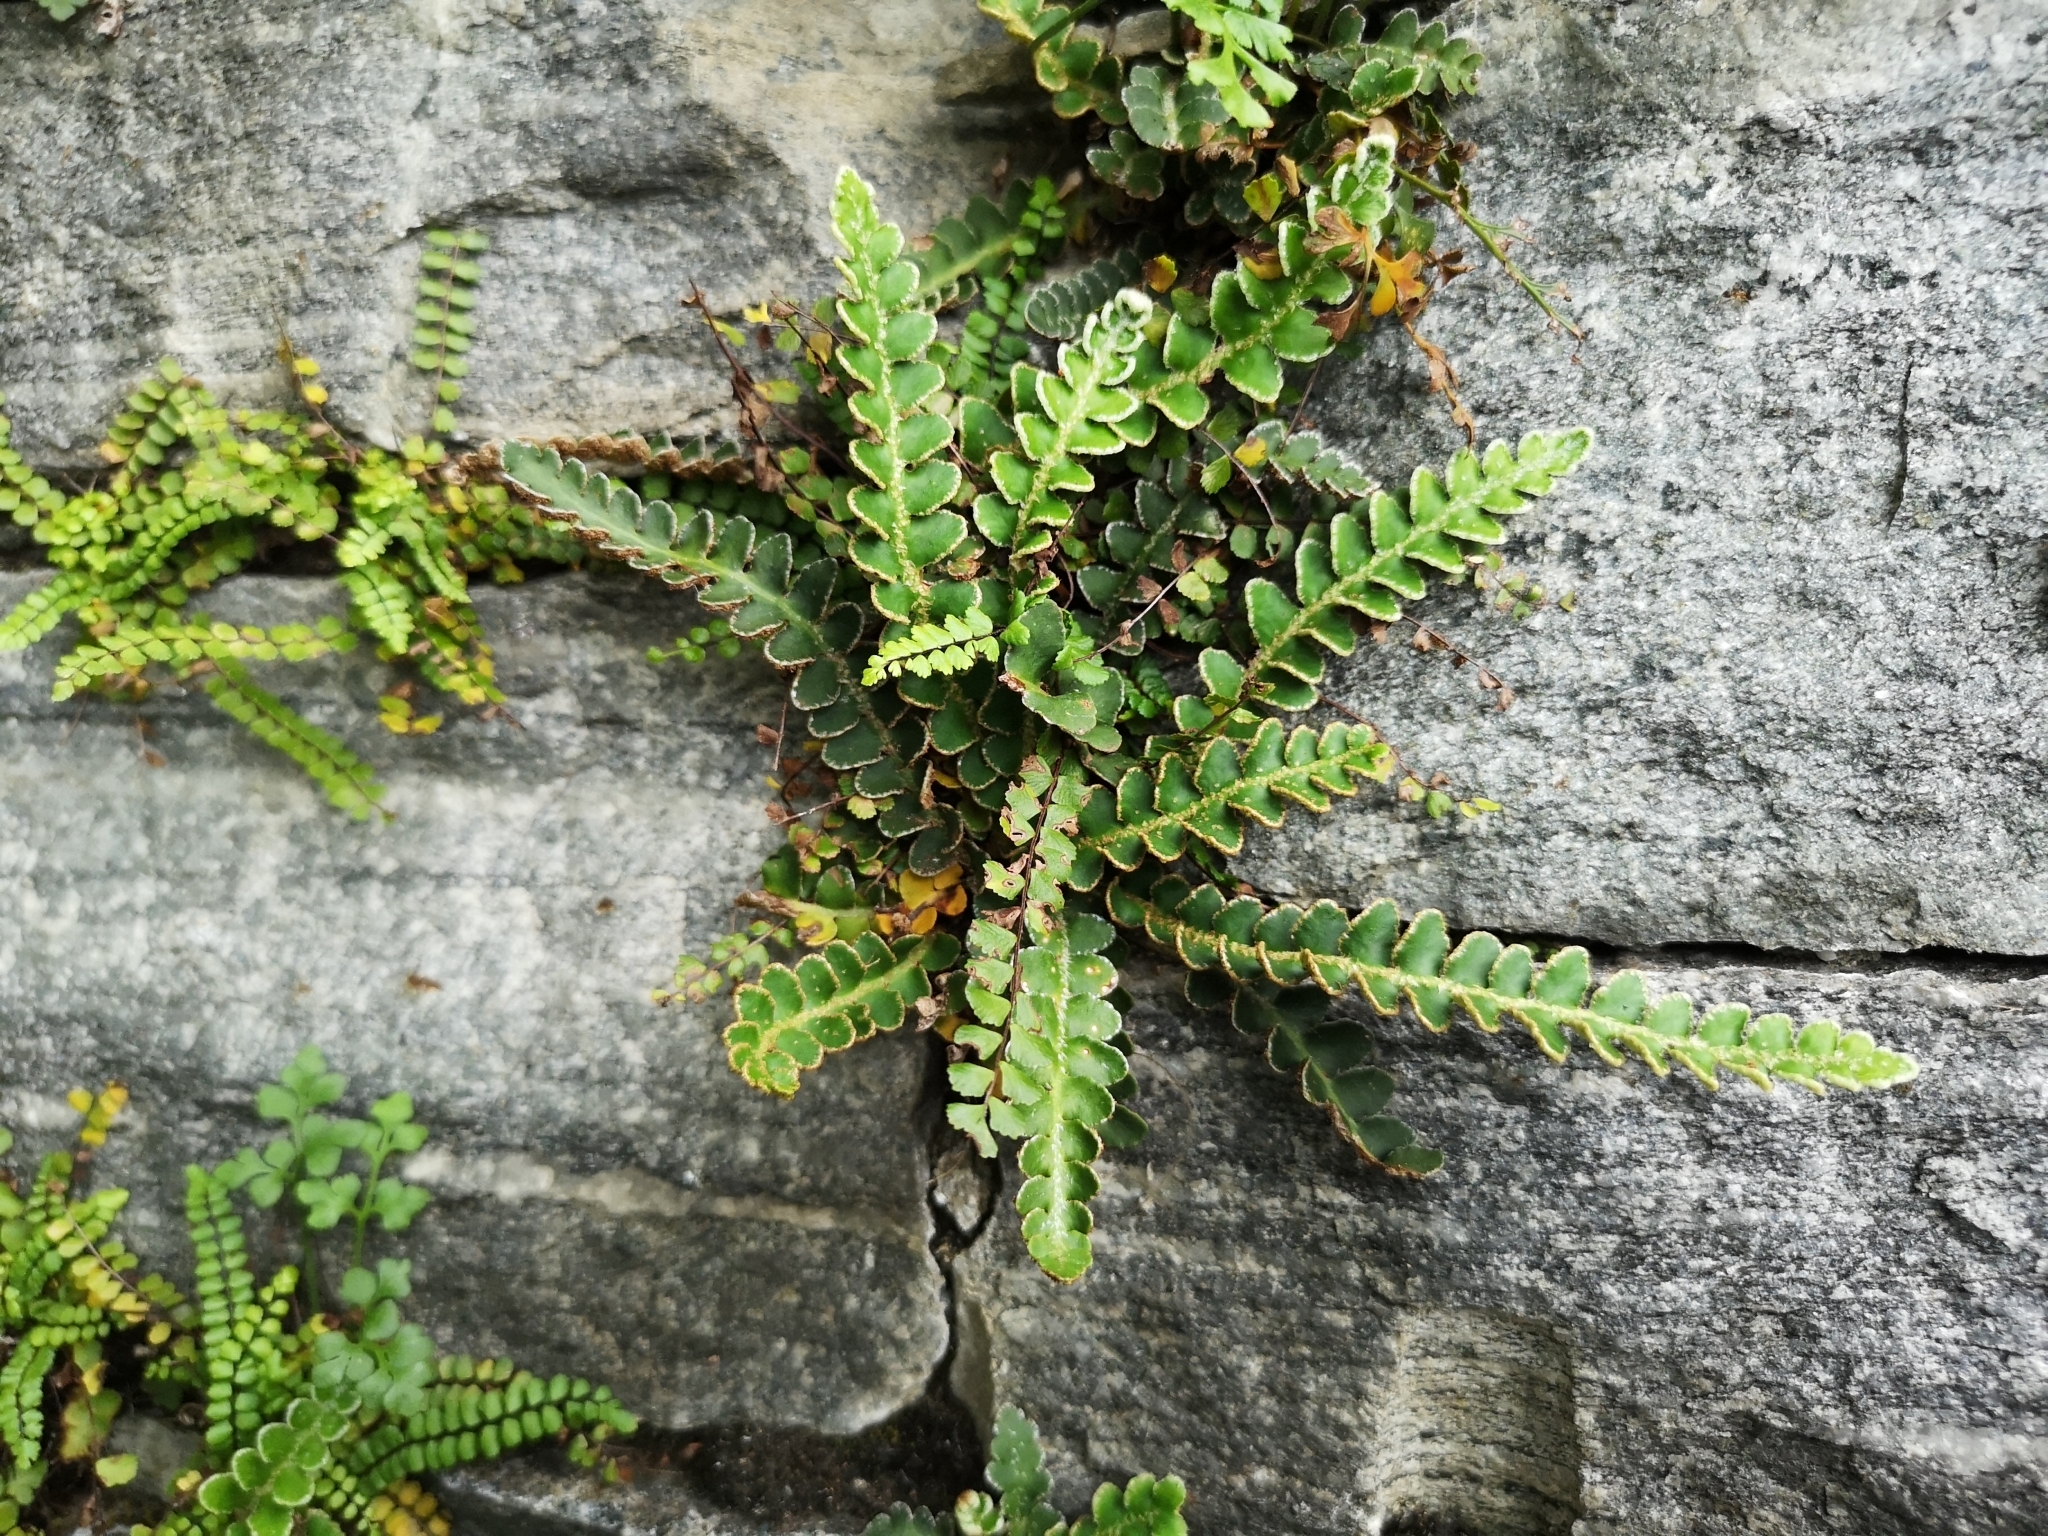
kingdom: Plantae
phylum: Tracheophyta
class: Polypodiopsida
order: Polypodiales
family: Aspleniaceae
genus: Asplenium
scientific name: Asplenium ceterach
